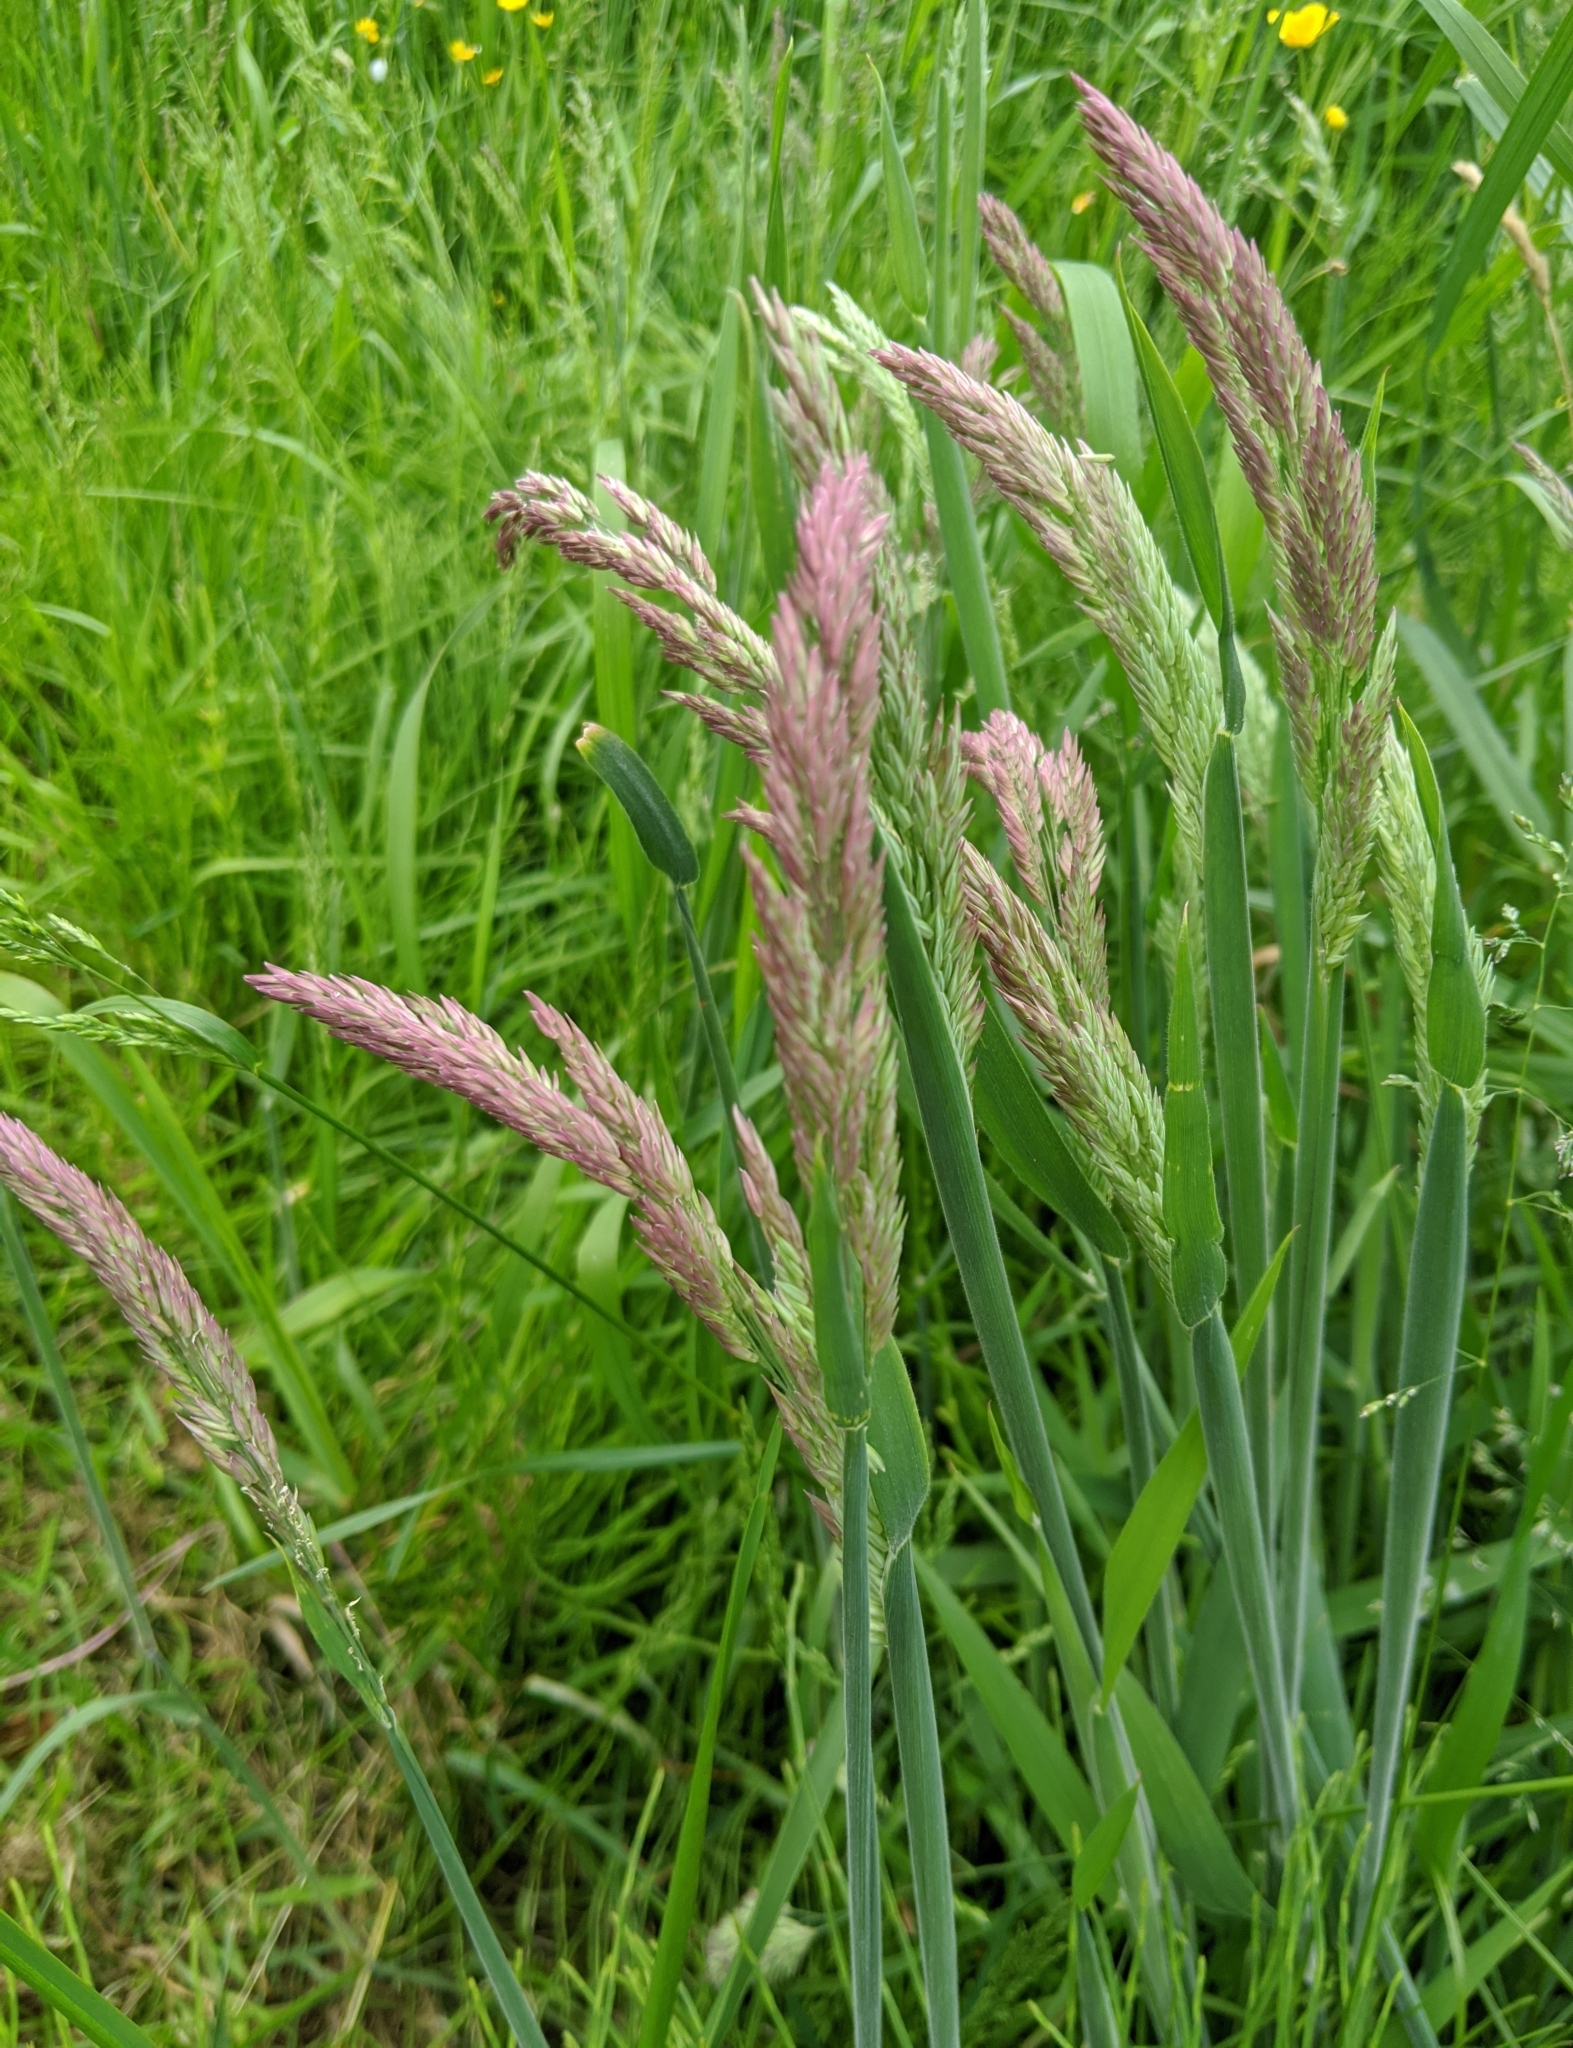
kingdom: Plantae
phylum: Tracheophyta
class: Liliopsida
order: Poales
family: Poaceae
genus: Holcus
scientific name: Holcus lanatus
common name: Yorkshire-fog
